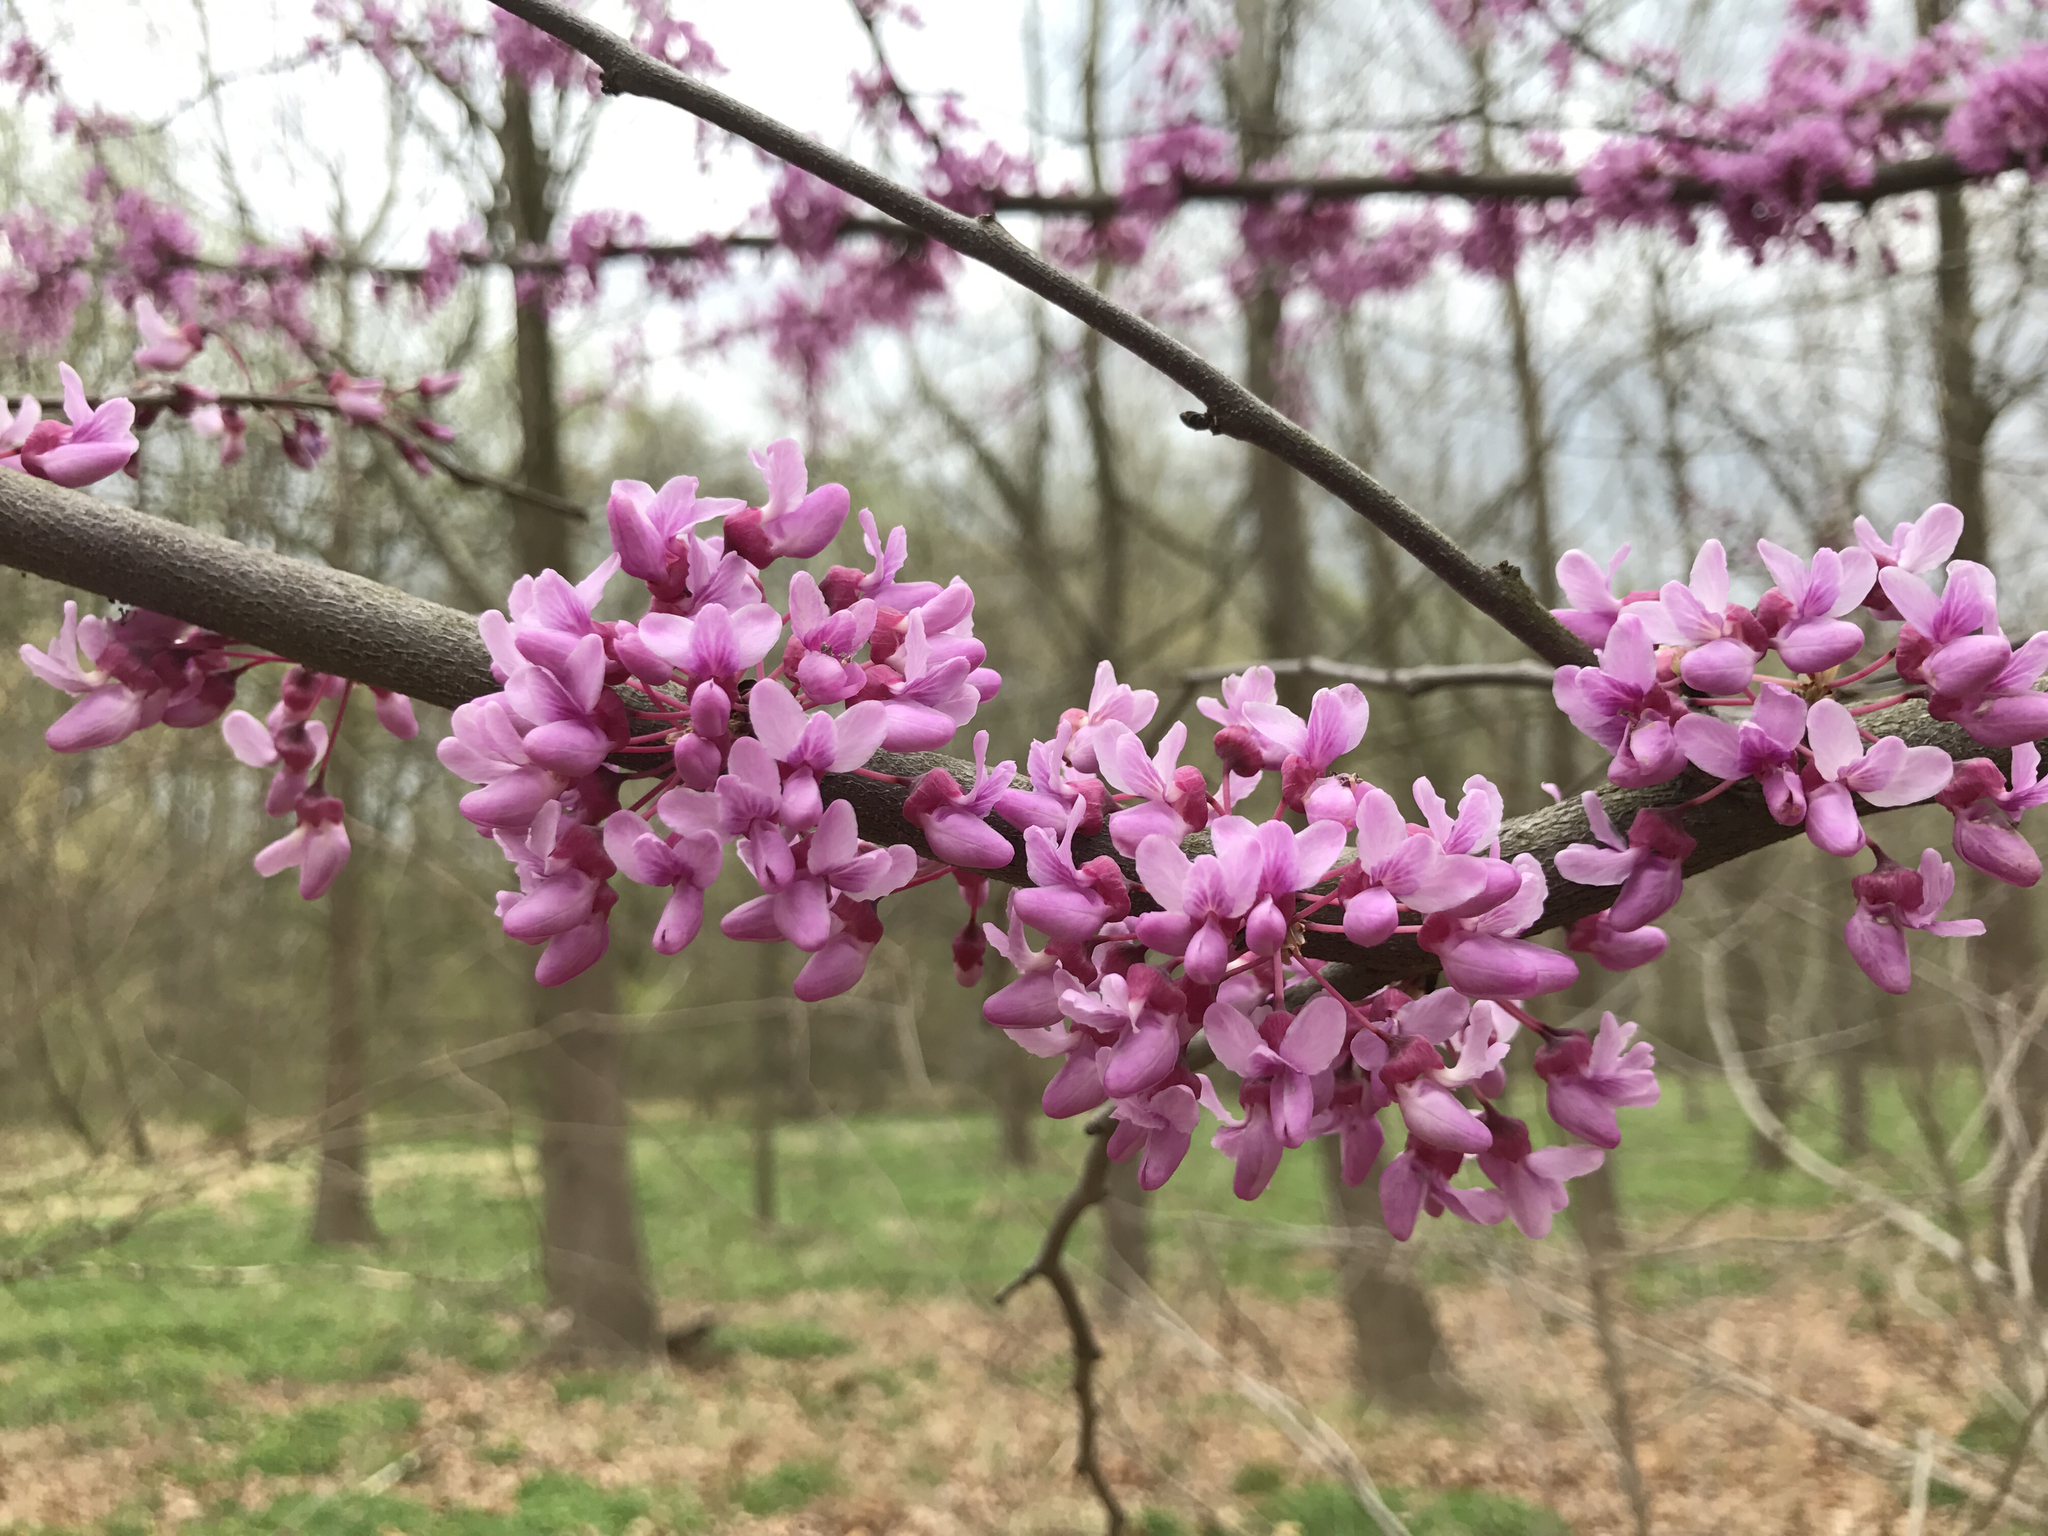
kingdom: Plantae
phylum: Tracheophyta
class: Magnoliopsida
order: Fabales
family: Fabaceae
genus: Cercis
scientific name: Cercis canadensis
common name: Eastern redbud
